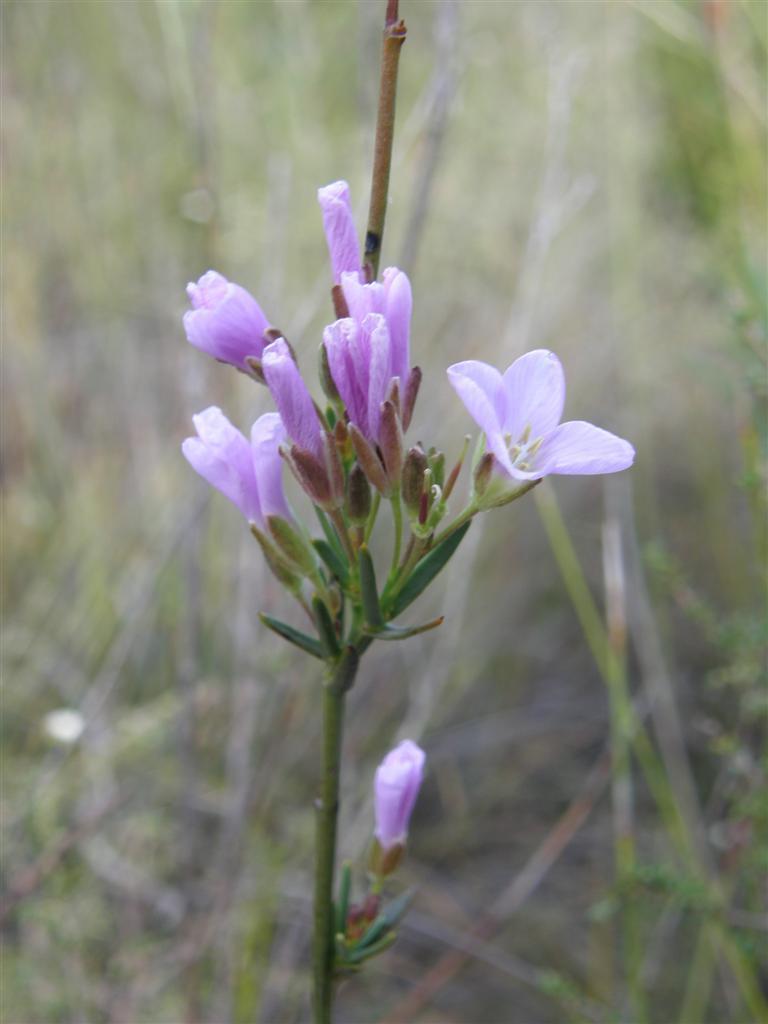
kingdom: Plantae
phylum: Tracheophyta
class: Magnoliopsida
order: Brassicales
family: Brassicaceae
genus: Heliophila
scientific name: Heliophila scoparia
